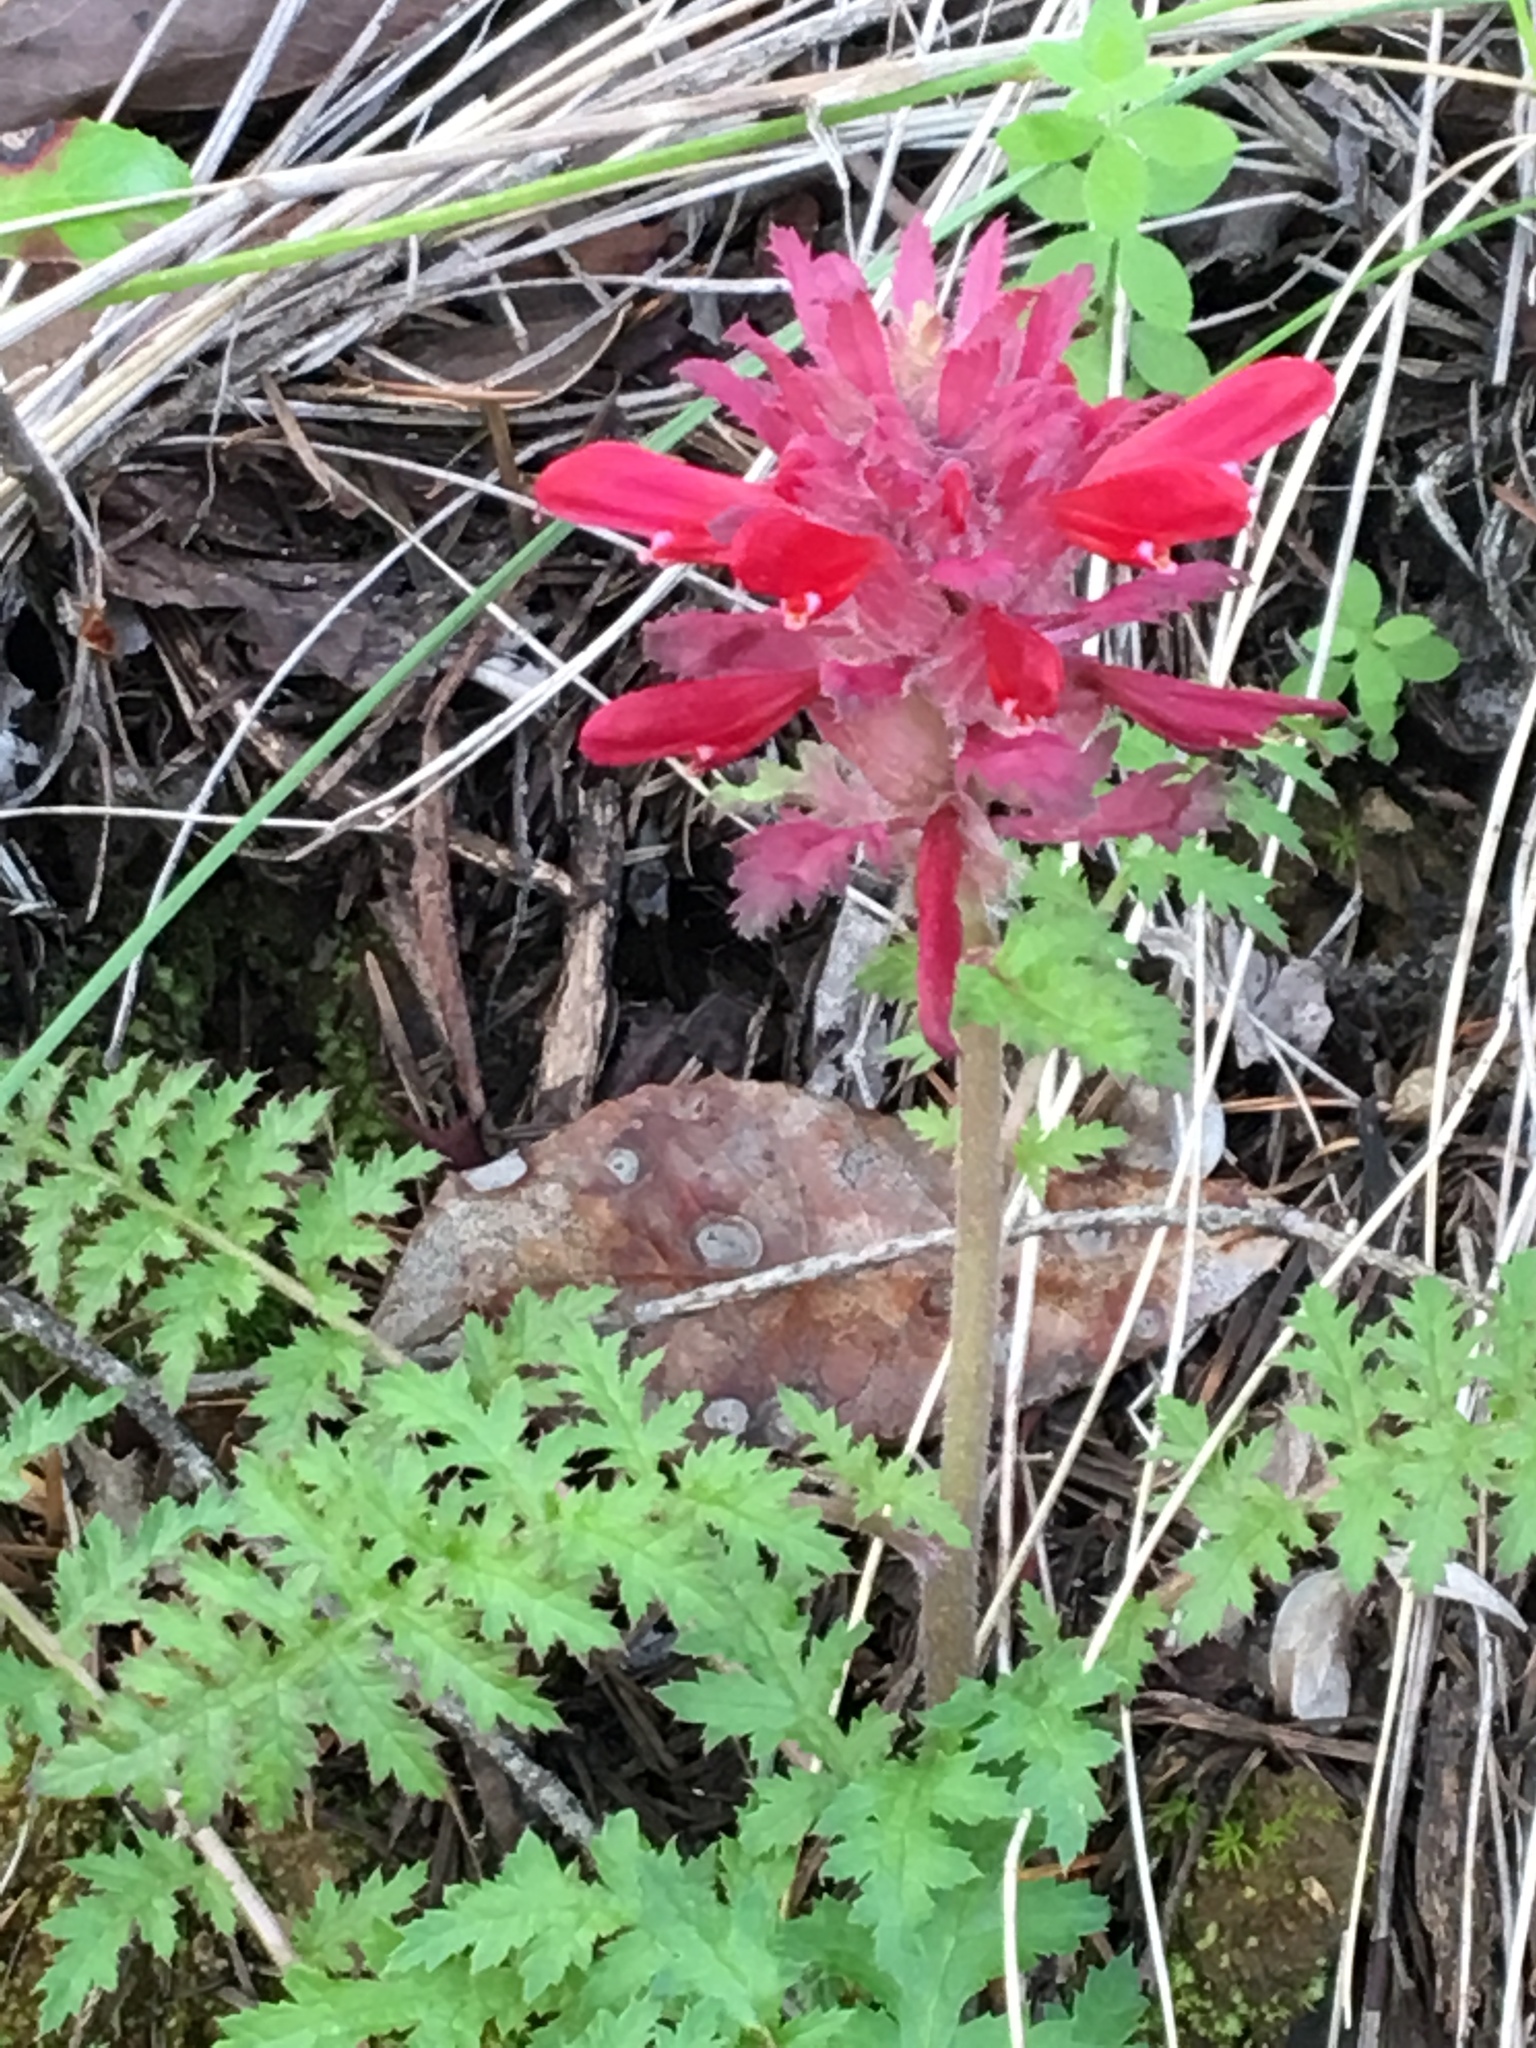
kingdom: Plantae
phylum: Tracheophyta
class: Magnoliopsida
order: Lamiales
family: Orobanchaceae
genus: Pedicularis
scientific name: Pedicularis densiflora
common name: Indian warrior
